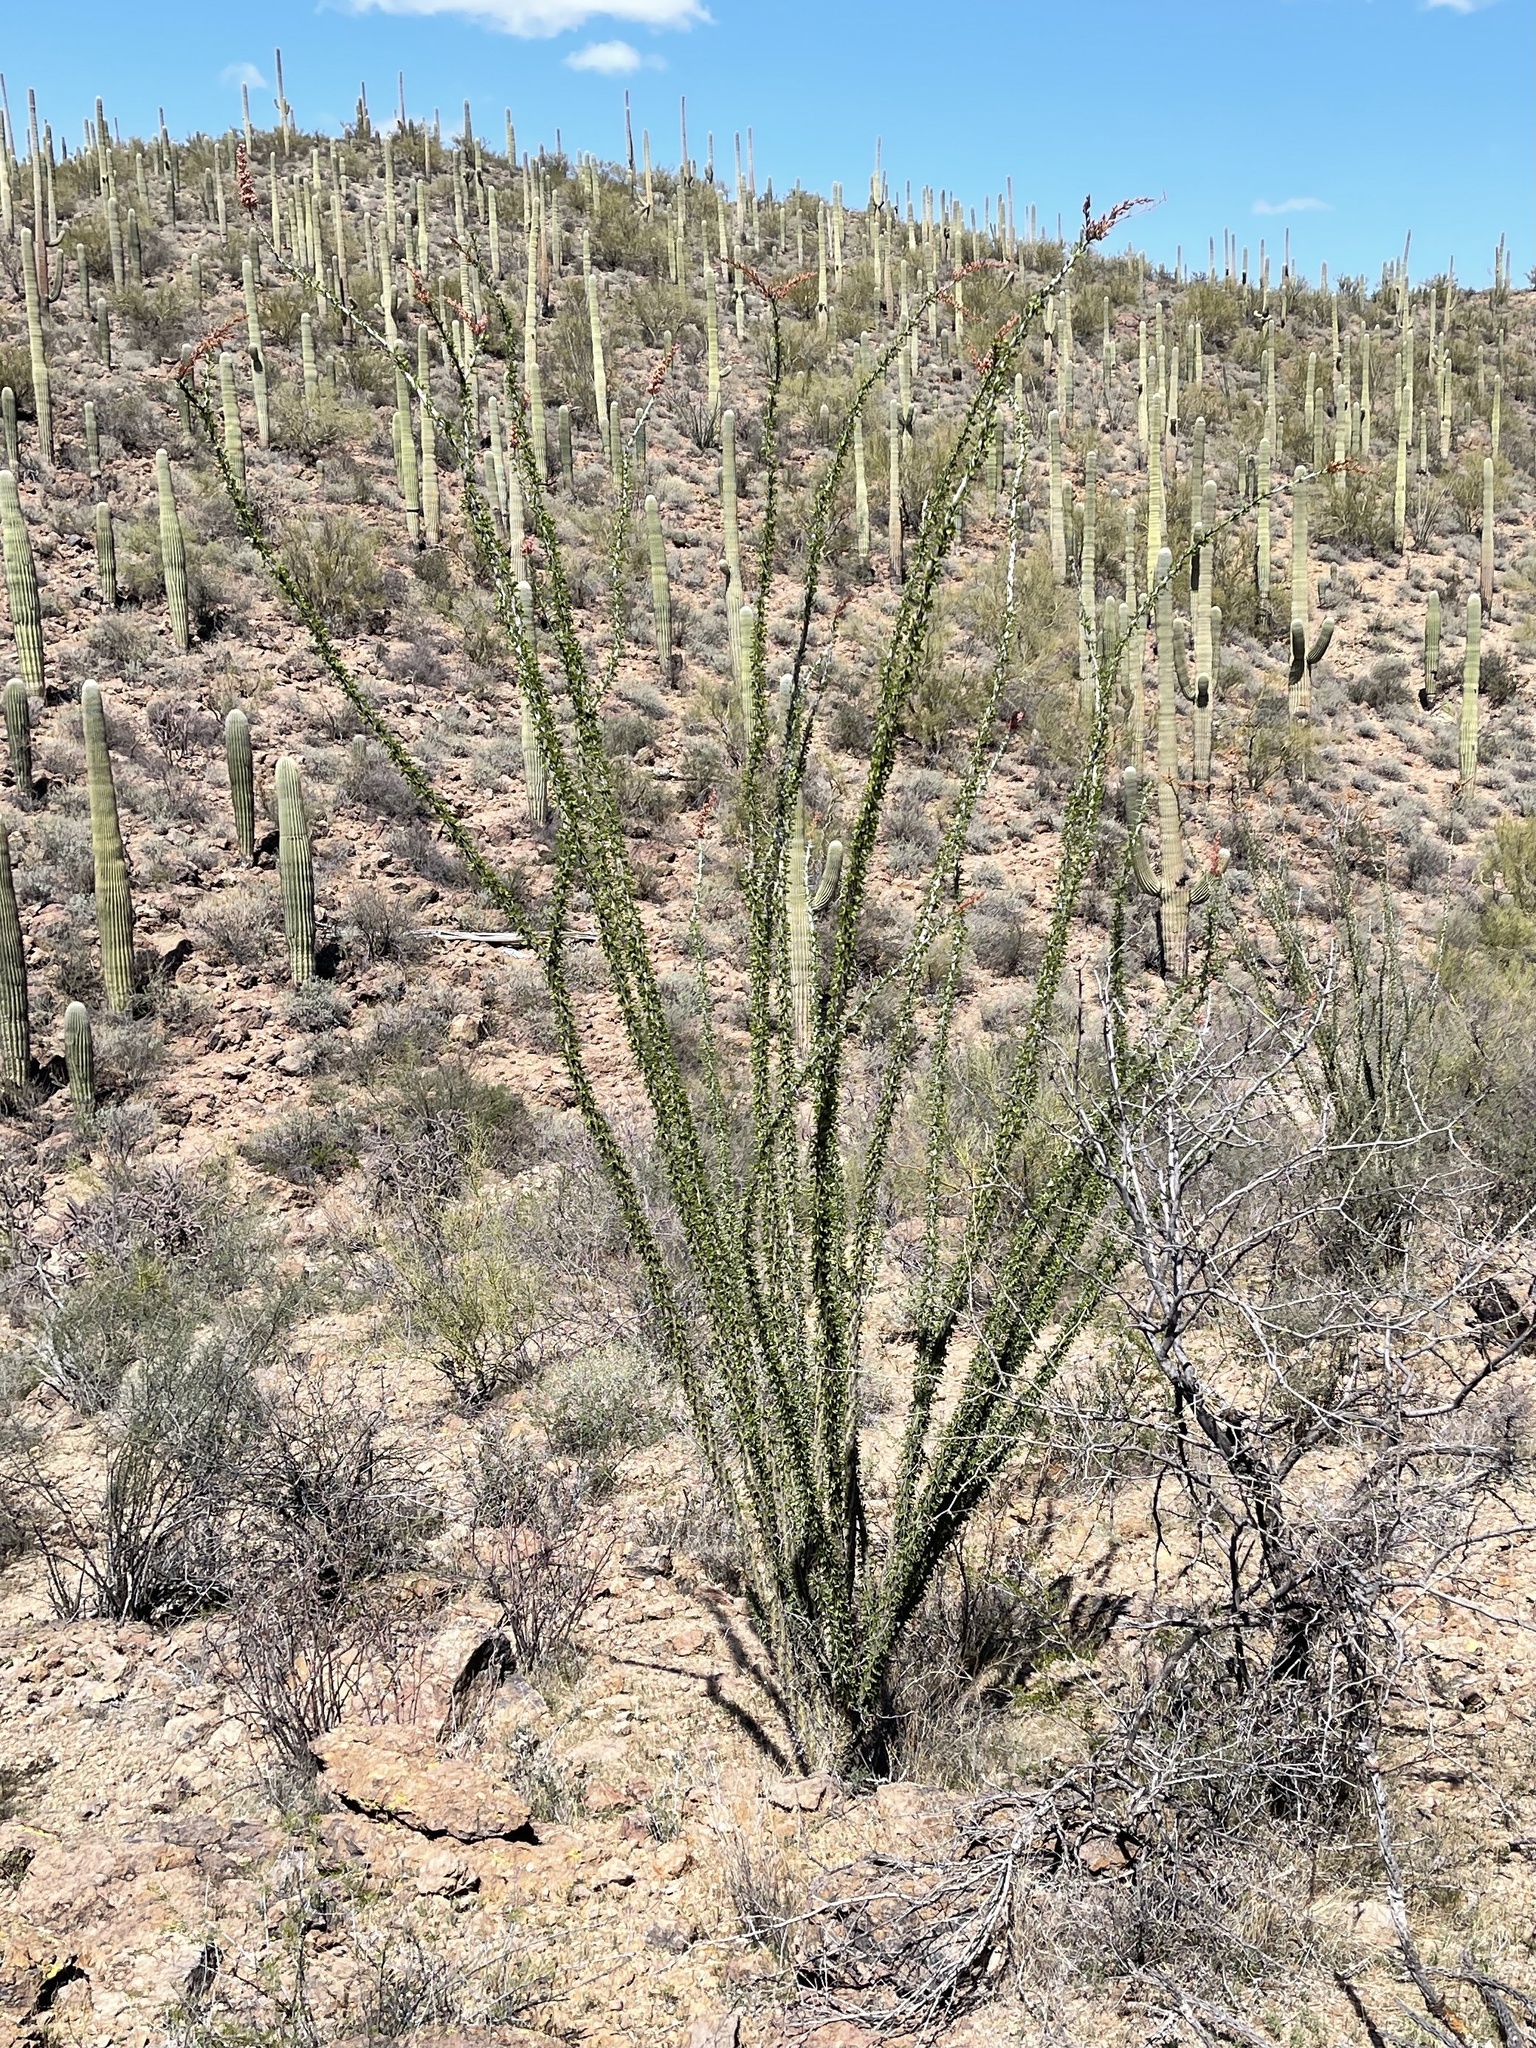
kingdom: Plantae
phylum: Tracheophyta
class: Magnoliopsida
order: Ericales
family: Fouquieriaceae
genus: Fouquieria
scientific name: Fouquieria splendens
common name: Vine-cactus
